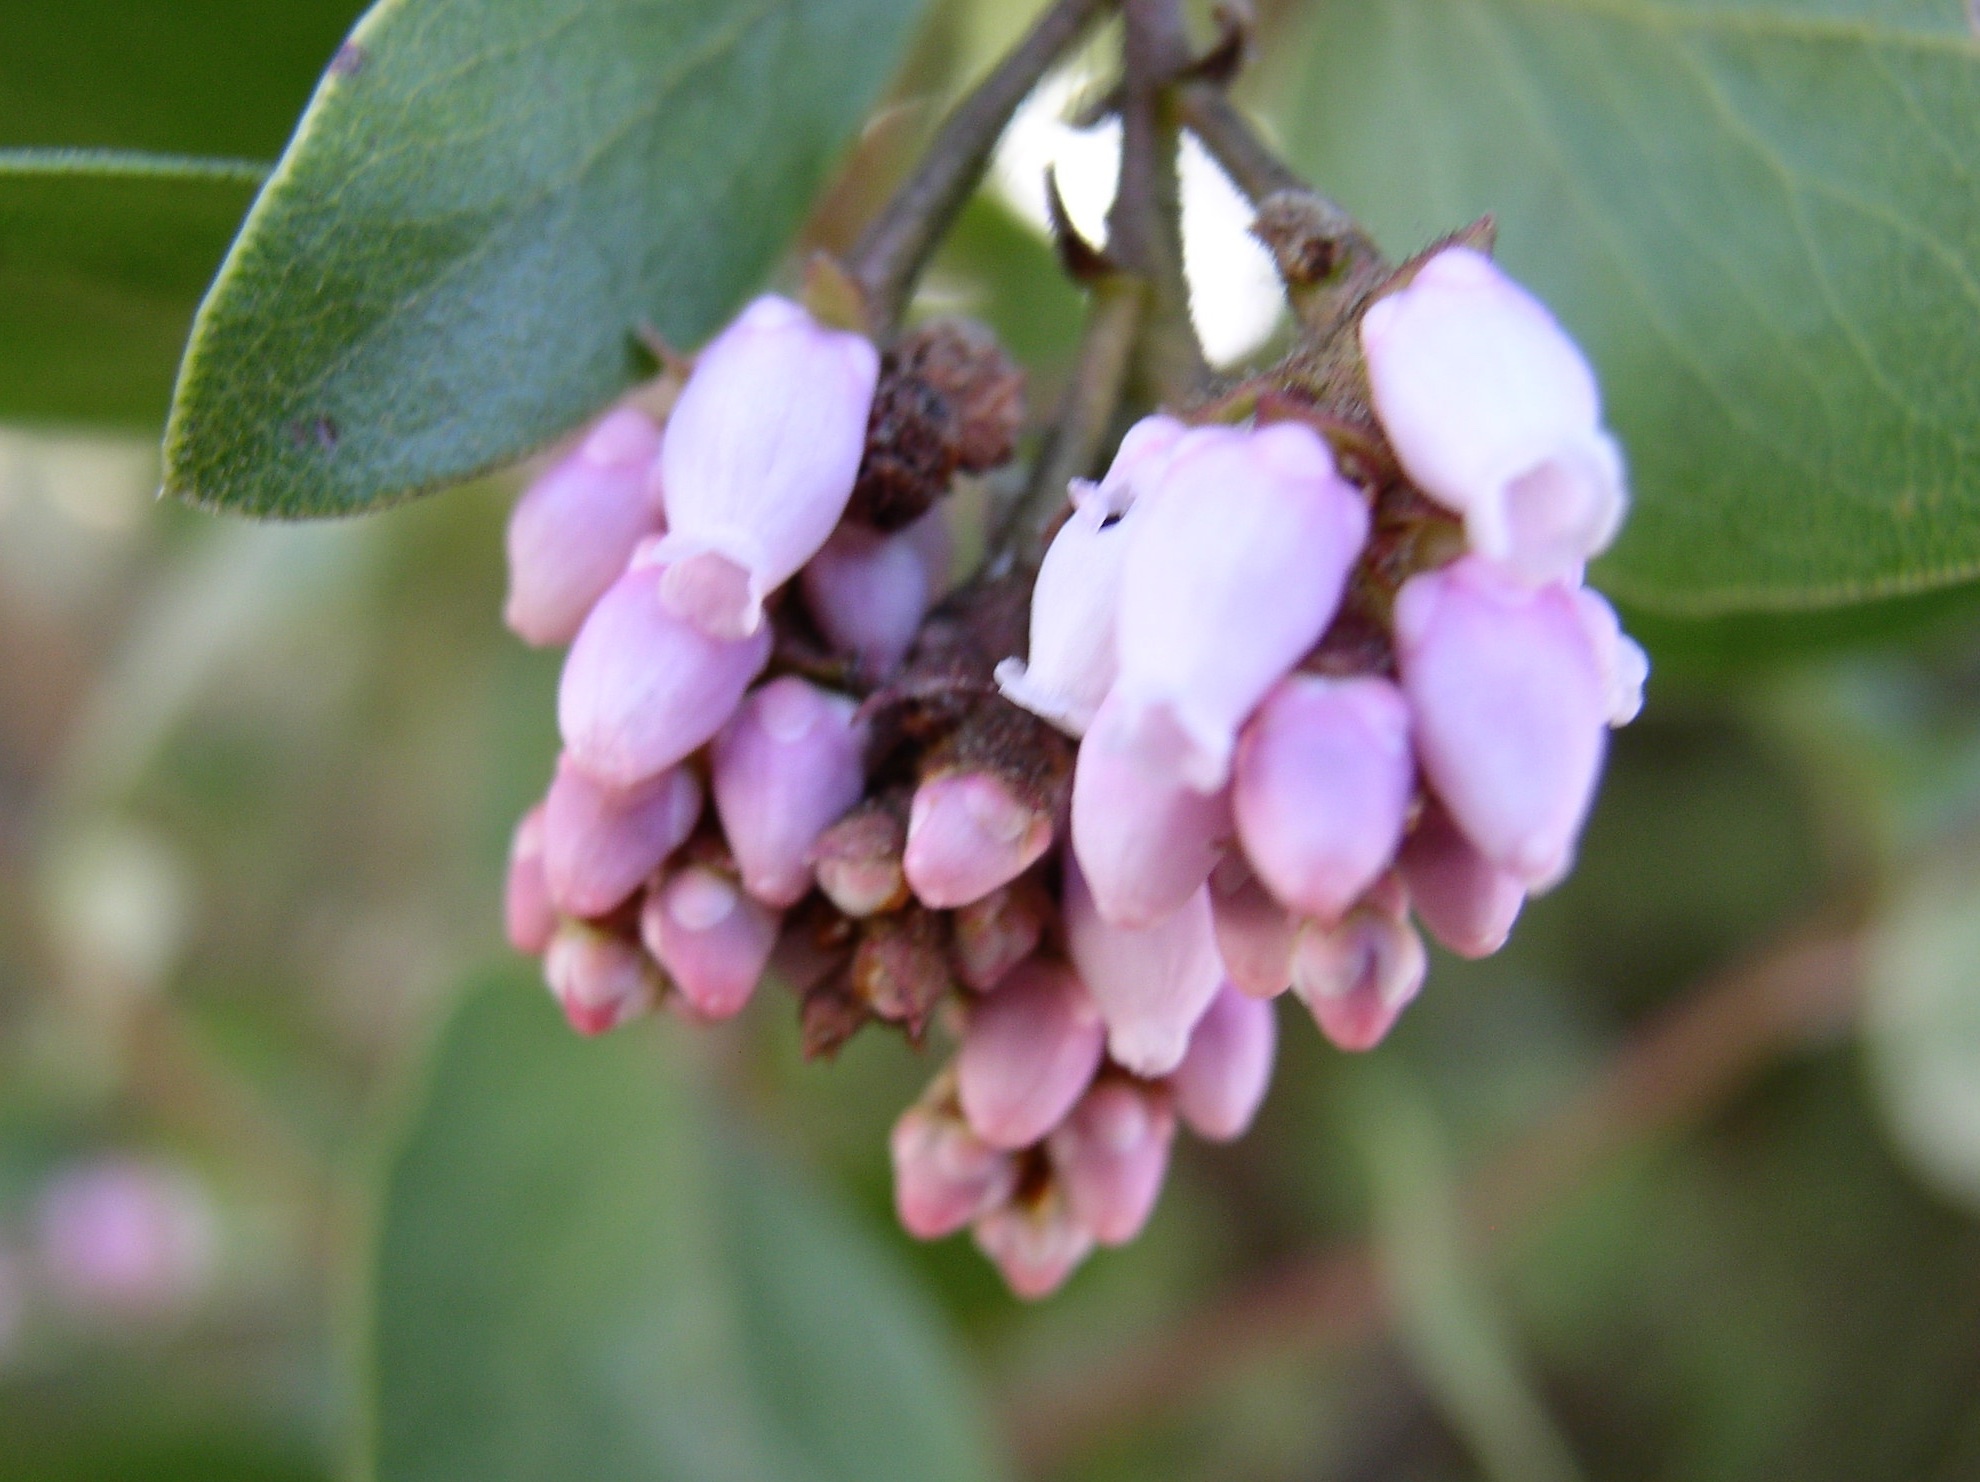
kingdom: Plantae
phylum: Tracheophyta
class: Magnoliopsida
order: Ericales
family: Ericaceae
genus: Arctostaphylos
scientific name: Arctostaphylos patula
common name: Green-leaf manzanita
